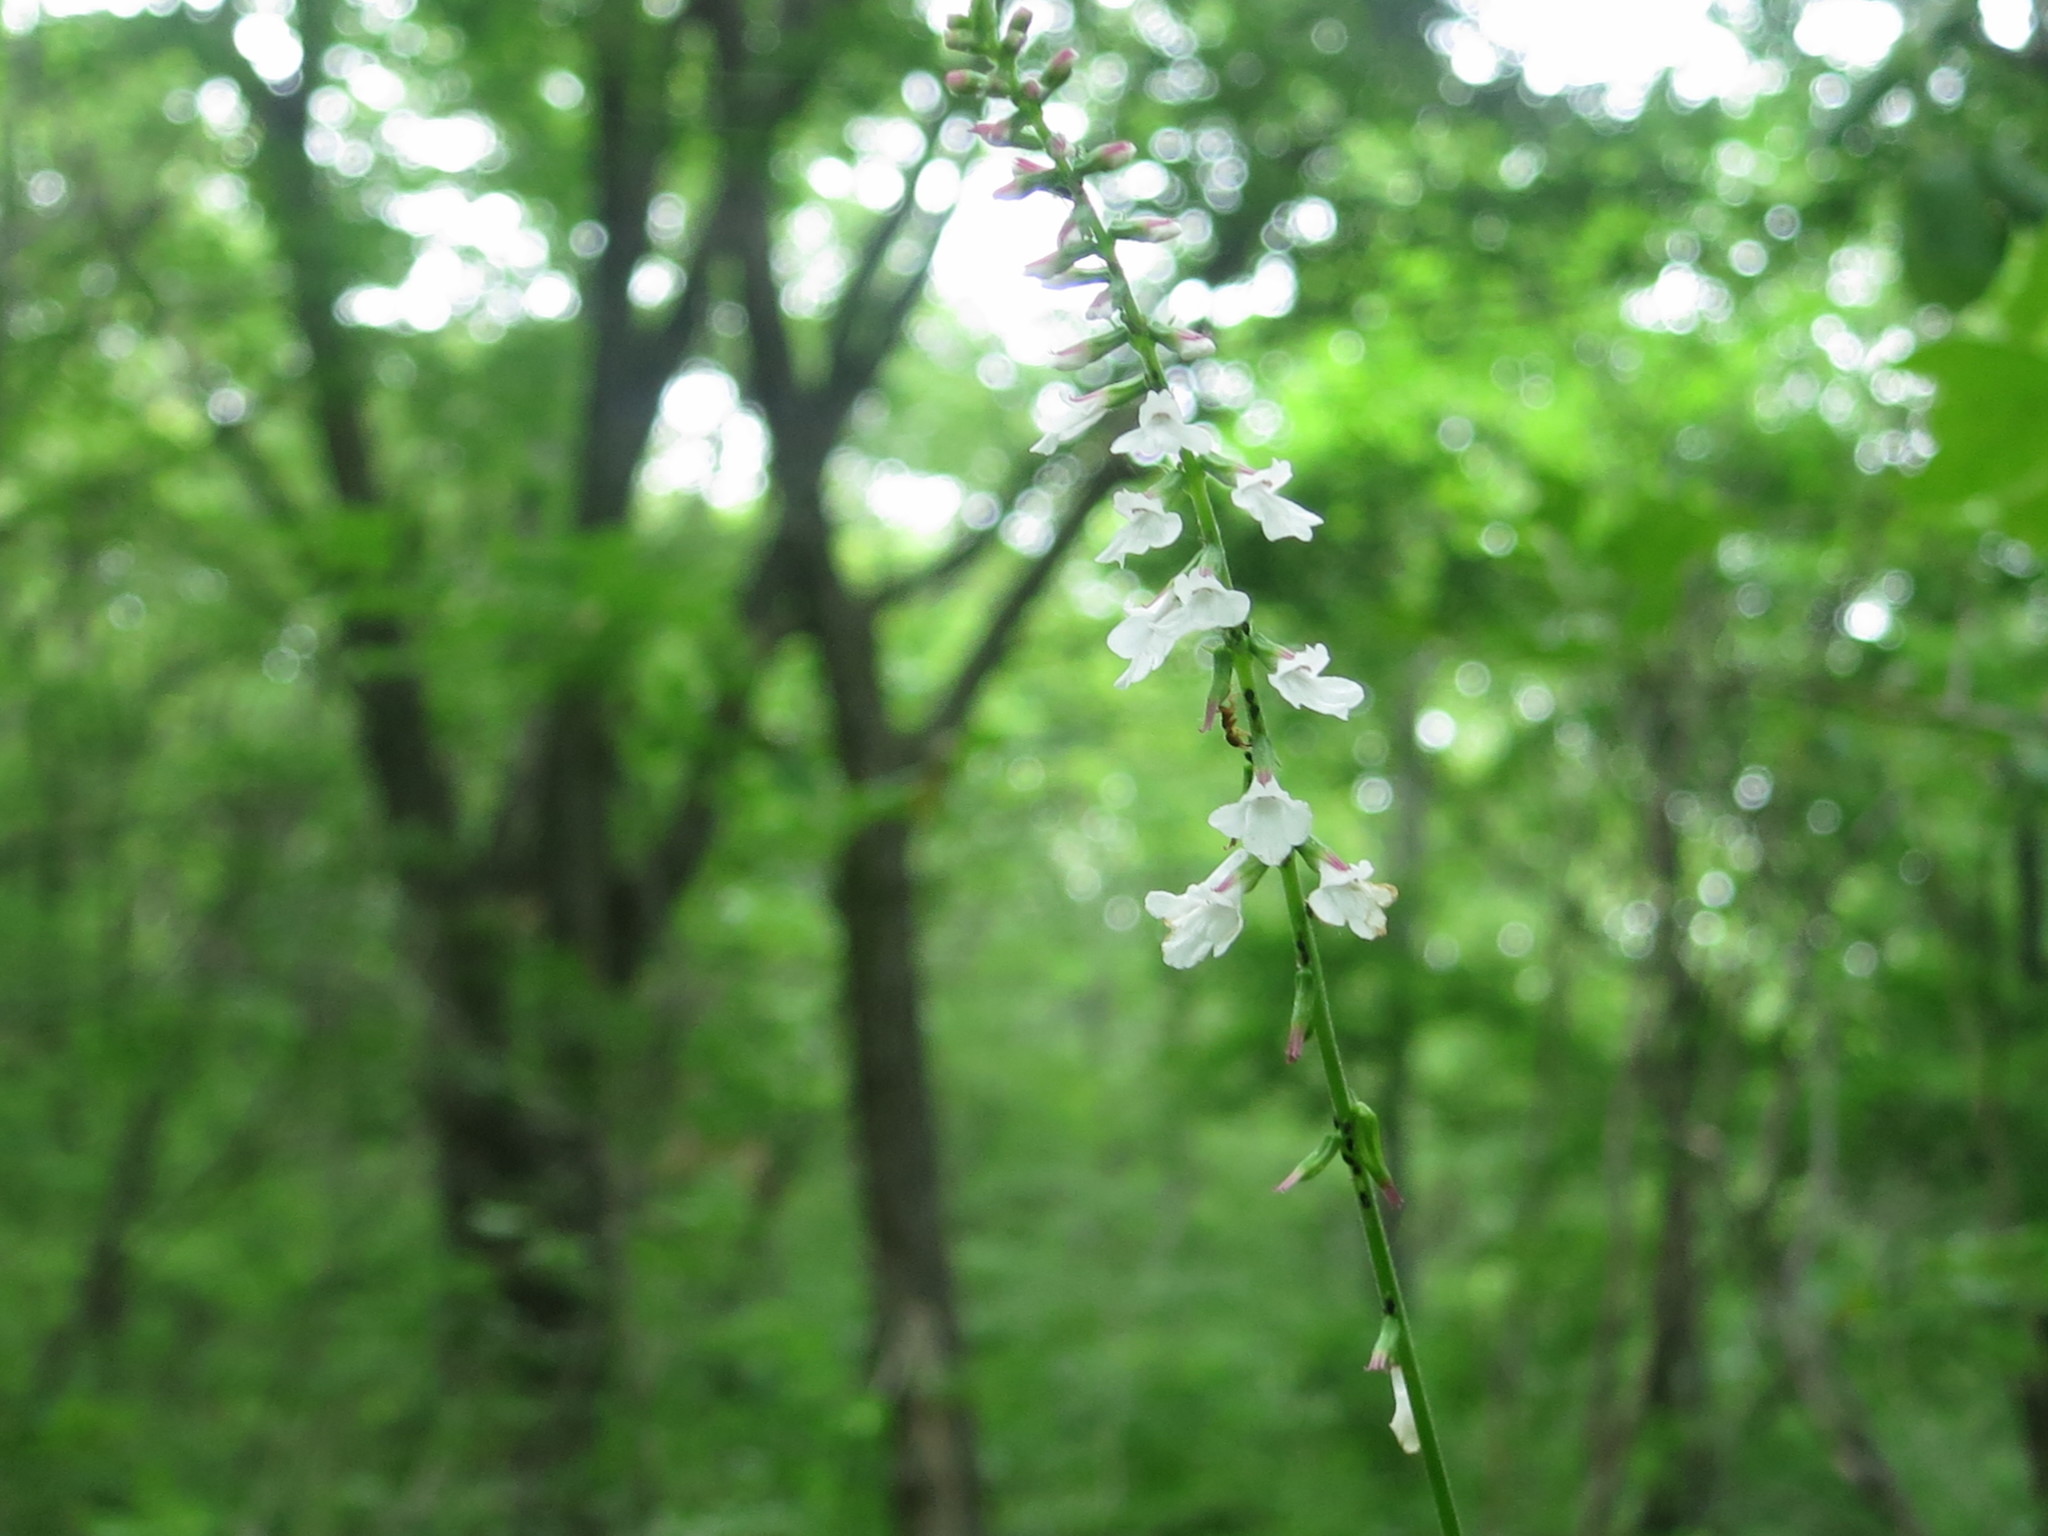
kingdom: Plantae
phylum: Tracheophyta
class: Magnoliopsida
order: Lamiales
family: Phrymaceae
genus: Phryma
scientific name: Phryma nana
